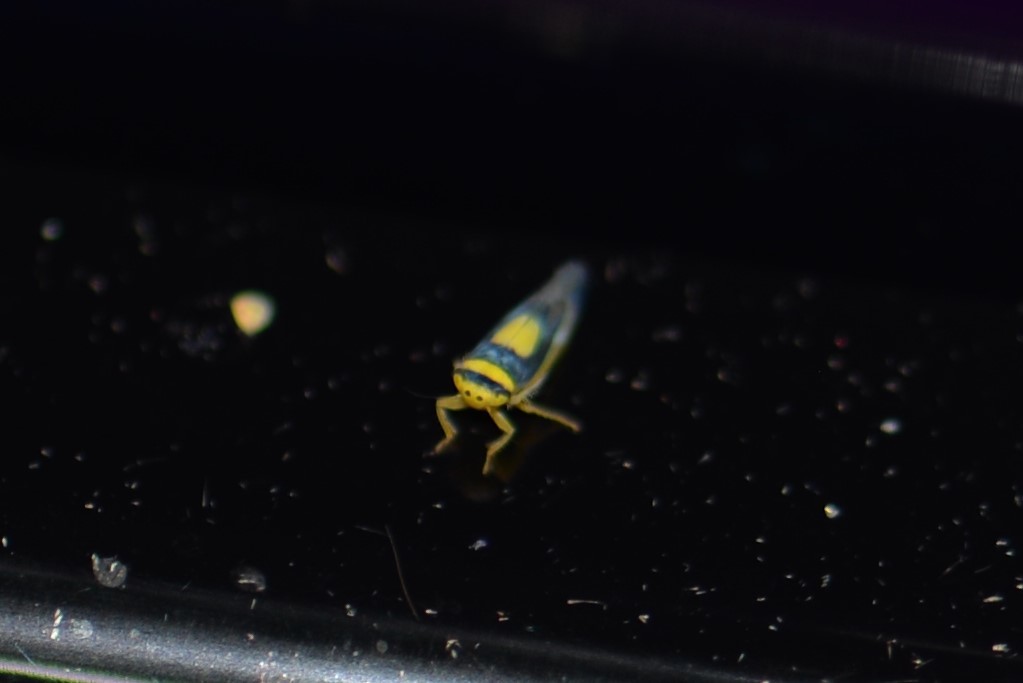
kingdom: Animalia
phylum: Arthropoda
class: Insecta
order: Hemiptera
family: Cicadellidae
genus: Colladonus
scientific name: Colladonus clitellarius
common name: The saddleback leafhopper
